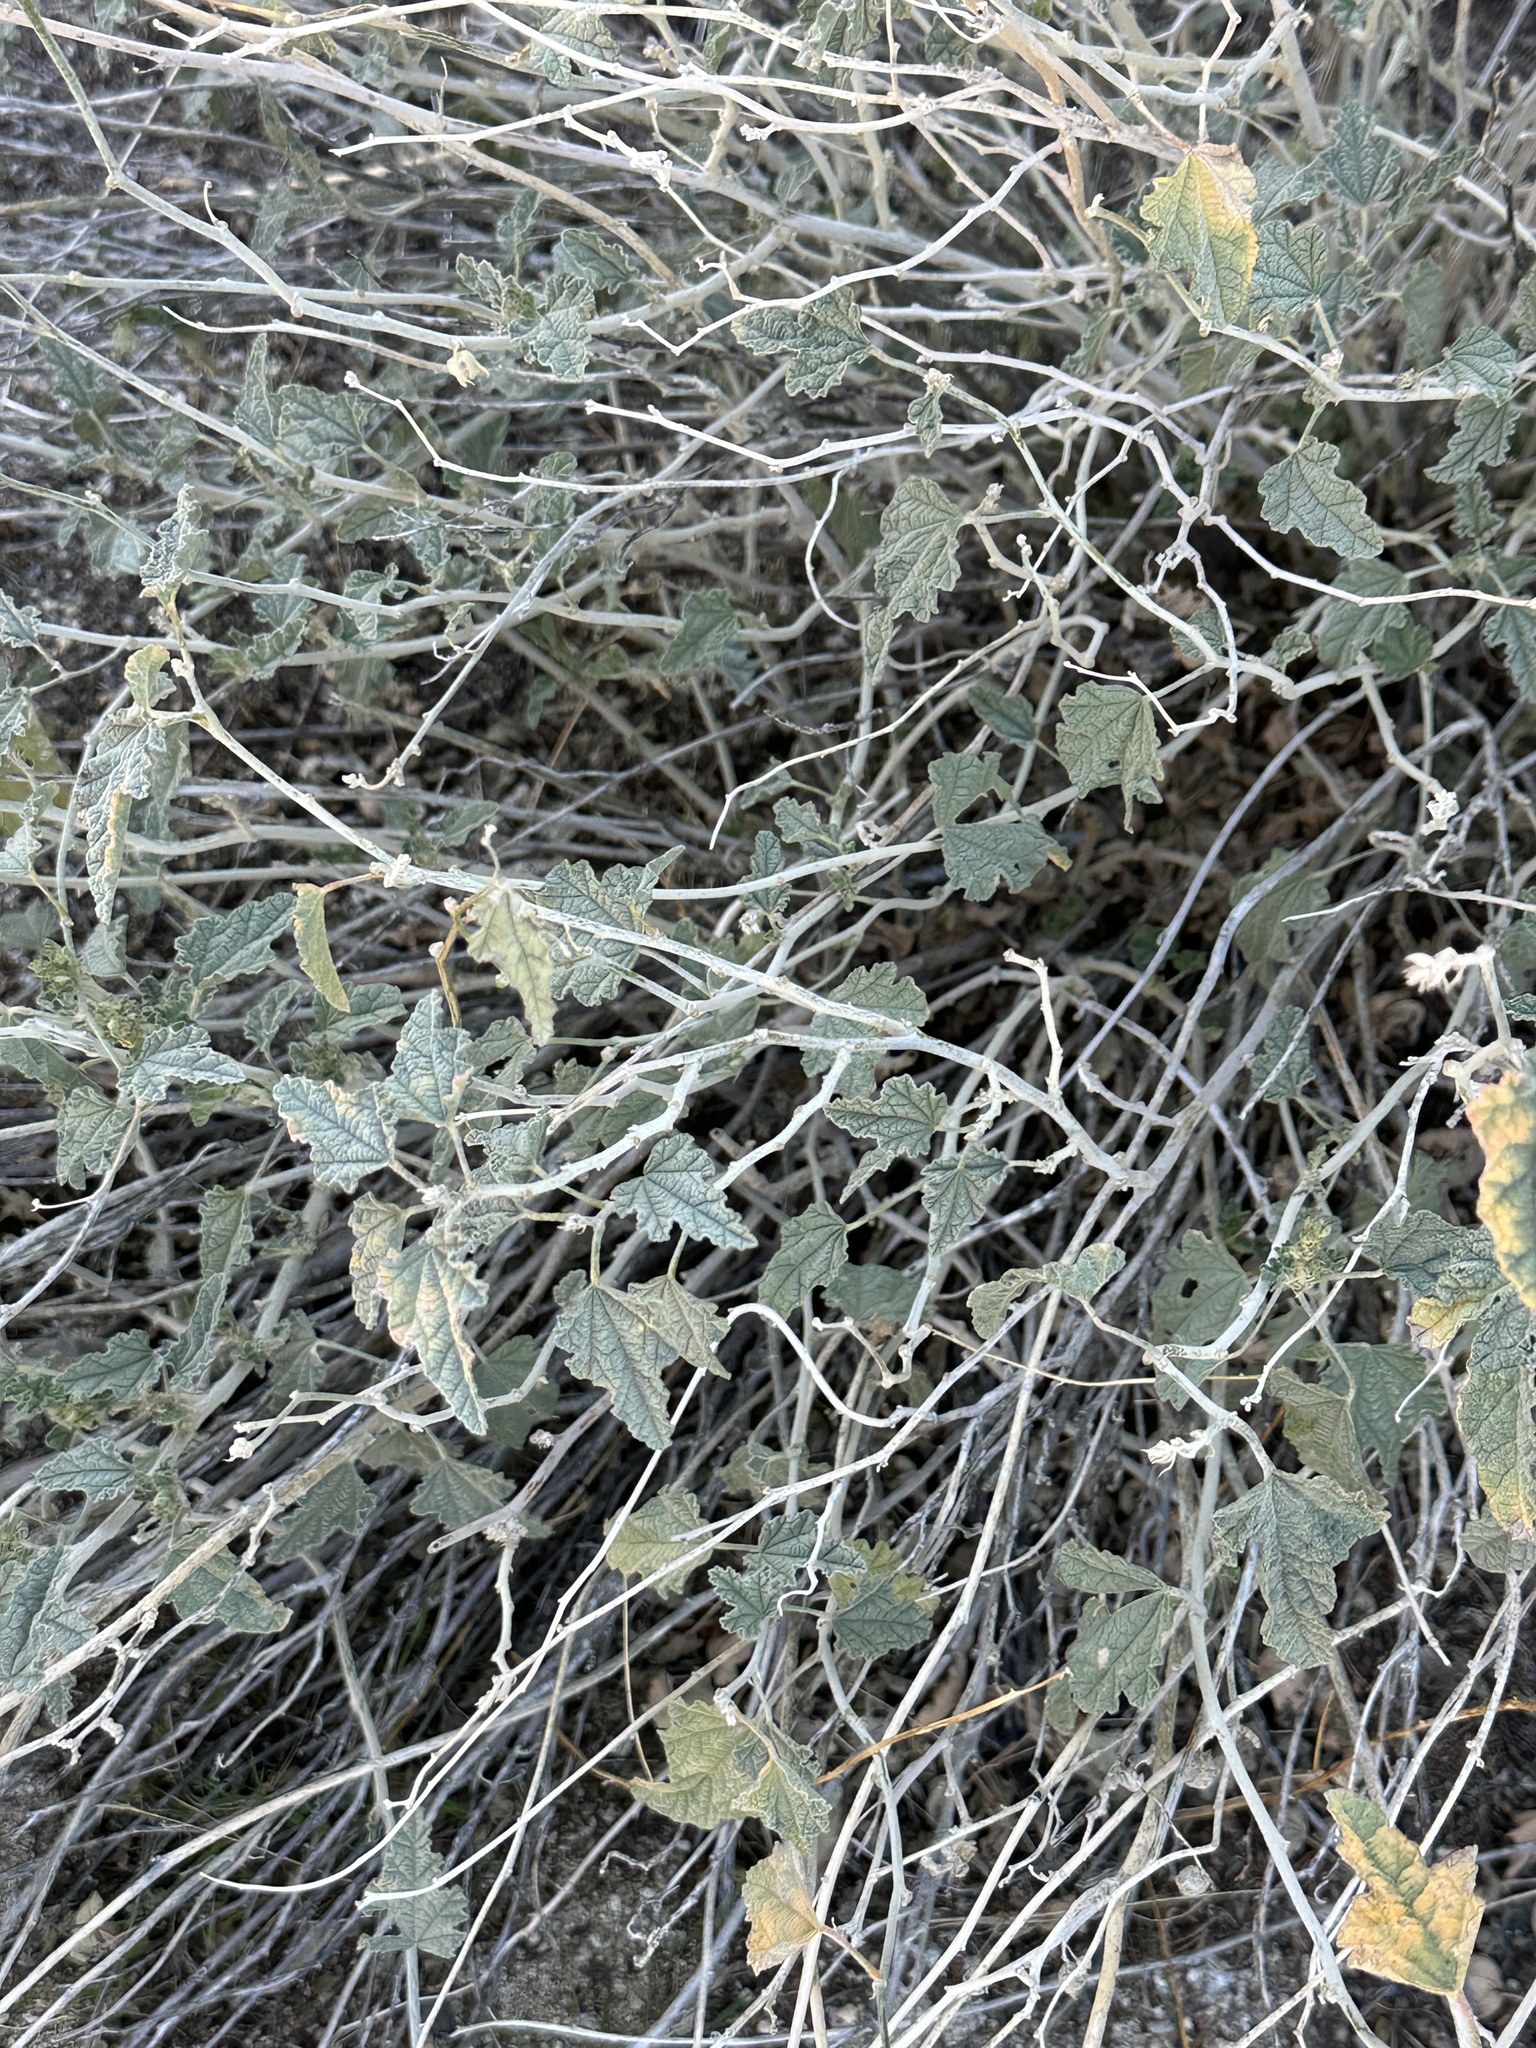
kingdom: Plantae
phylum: Tracheophyta
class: Magnoliopsida
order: Malvales
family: Malvaceae
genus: Sphaeralcea
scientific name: Sphaeralcea ambigua
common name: Apricot globe-mallow
